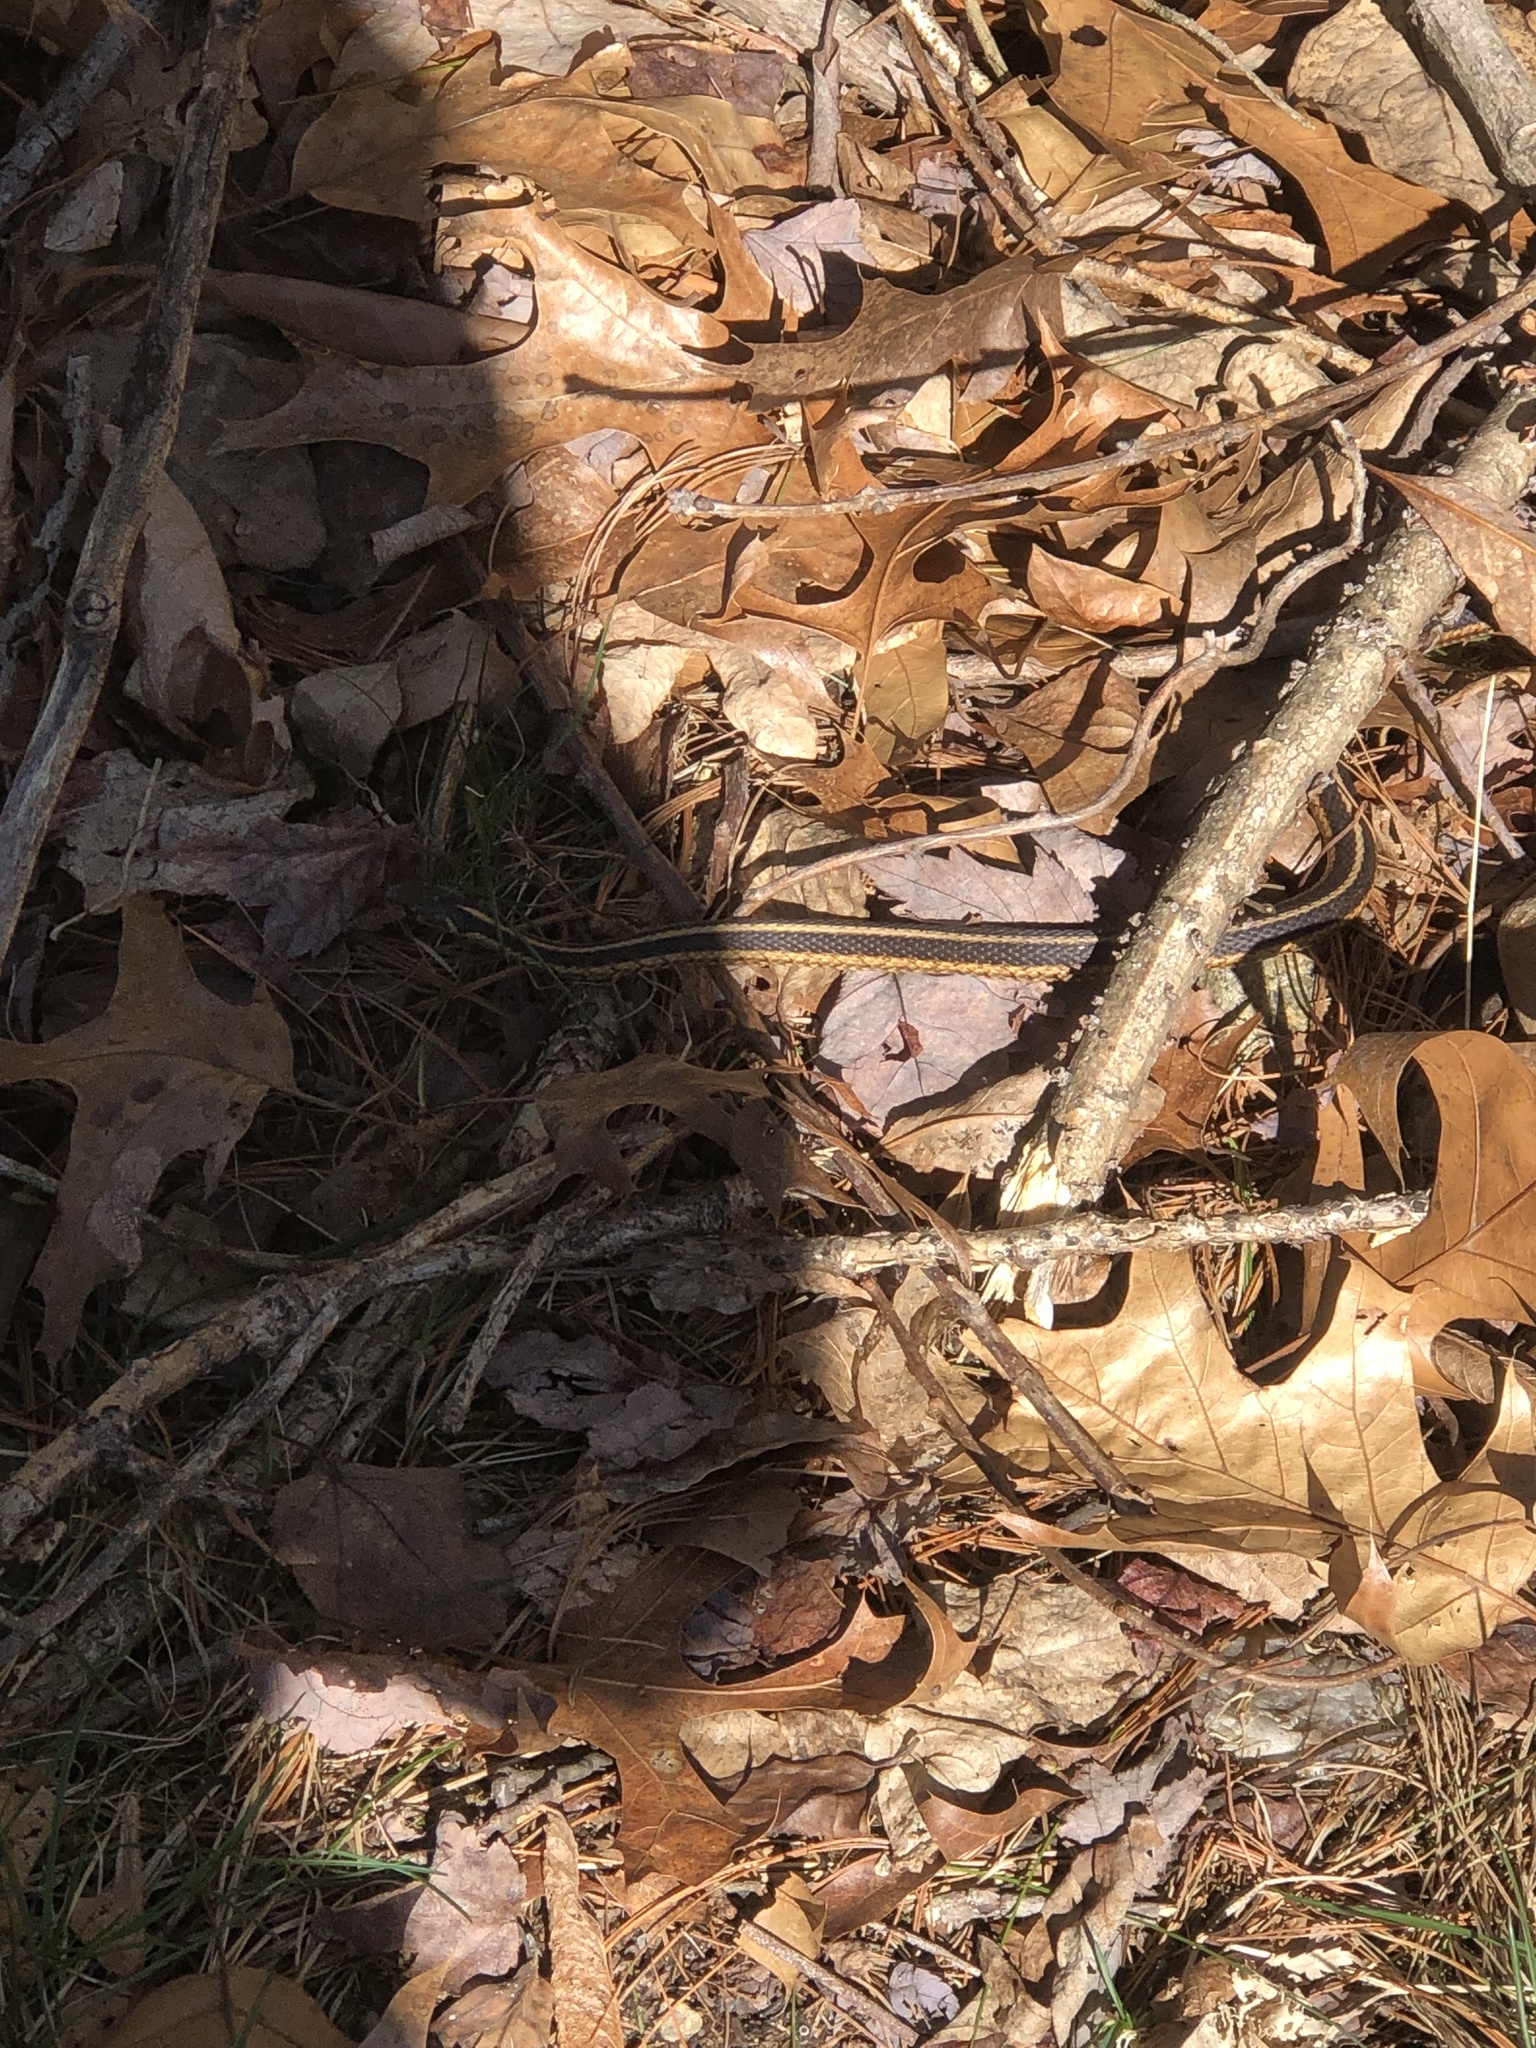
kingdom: Animalia
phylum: Chordata
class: Squamata
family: Colubridae
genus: Thamnophis
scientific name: Thamnophis sirtalis
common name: Common garter snake
